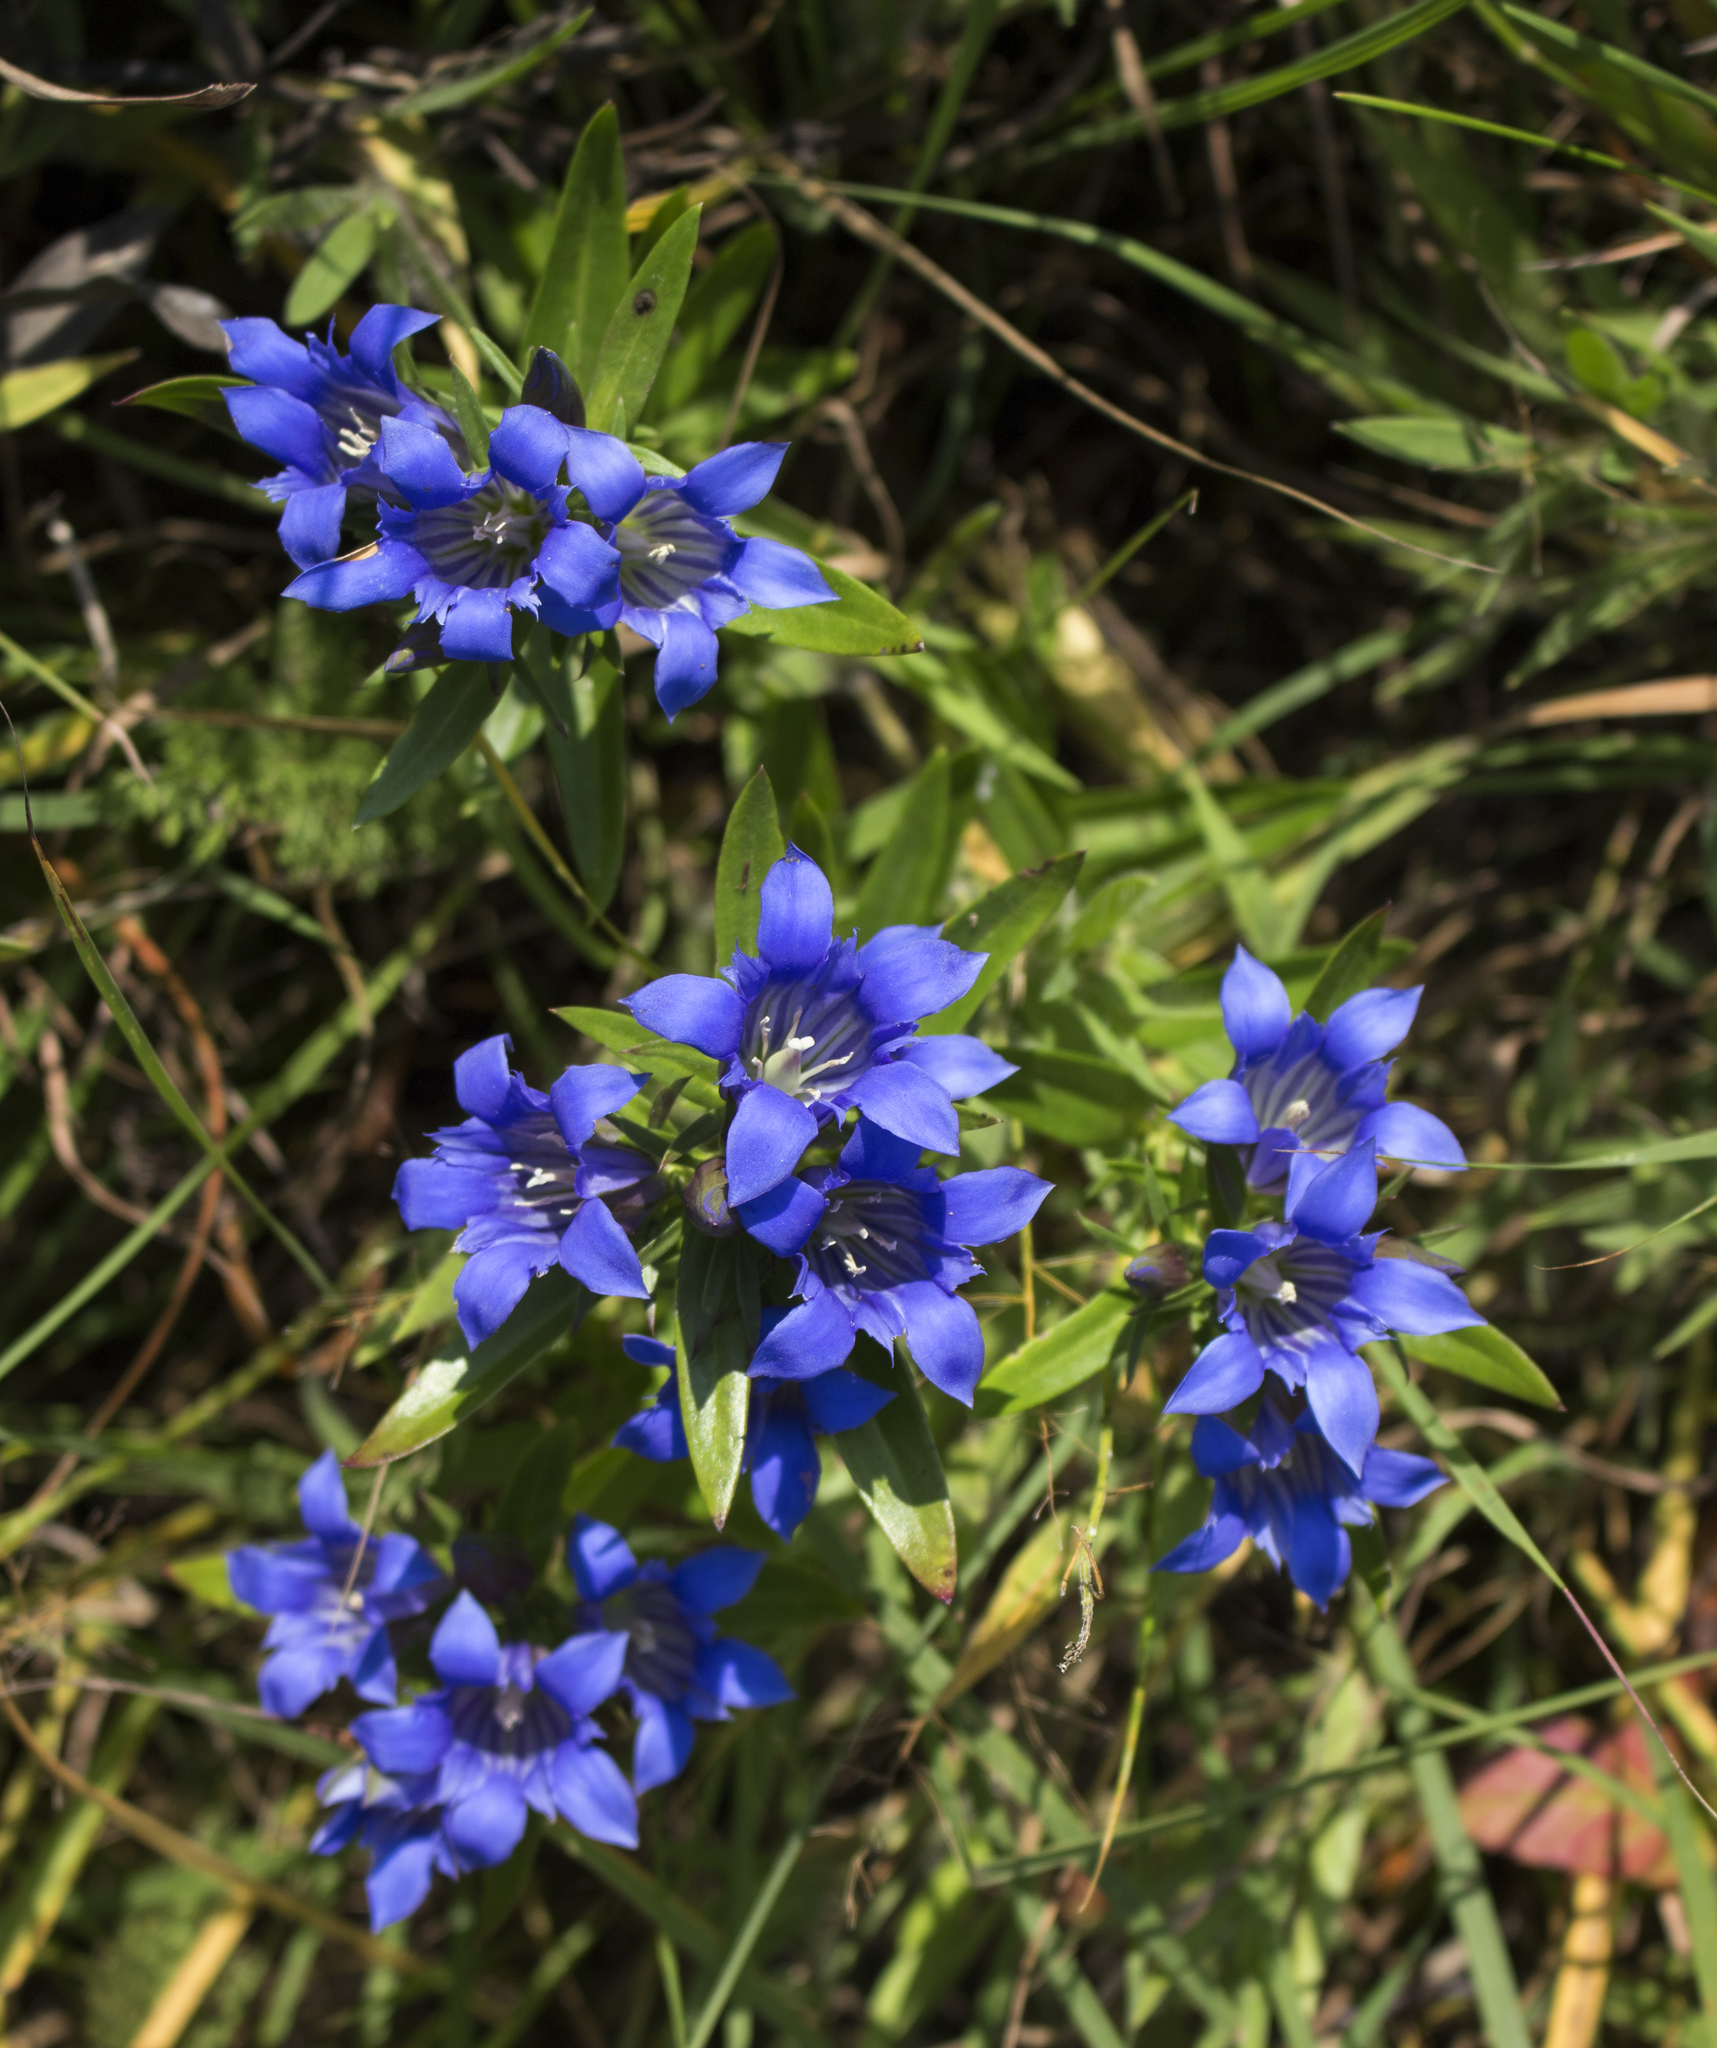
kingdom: Plantae
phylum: Tracheophyta
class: Magnoliopsida
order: Gentianales
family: Gentianaceae
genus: Gentiana
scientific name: Gentiana puberulenta
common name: Downy gentian
